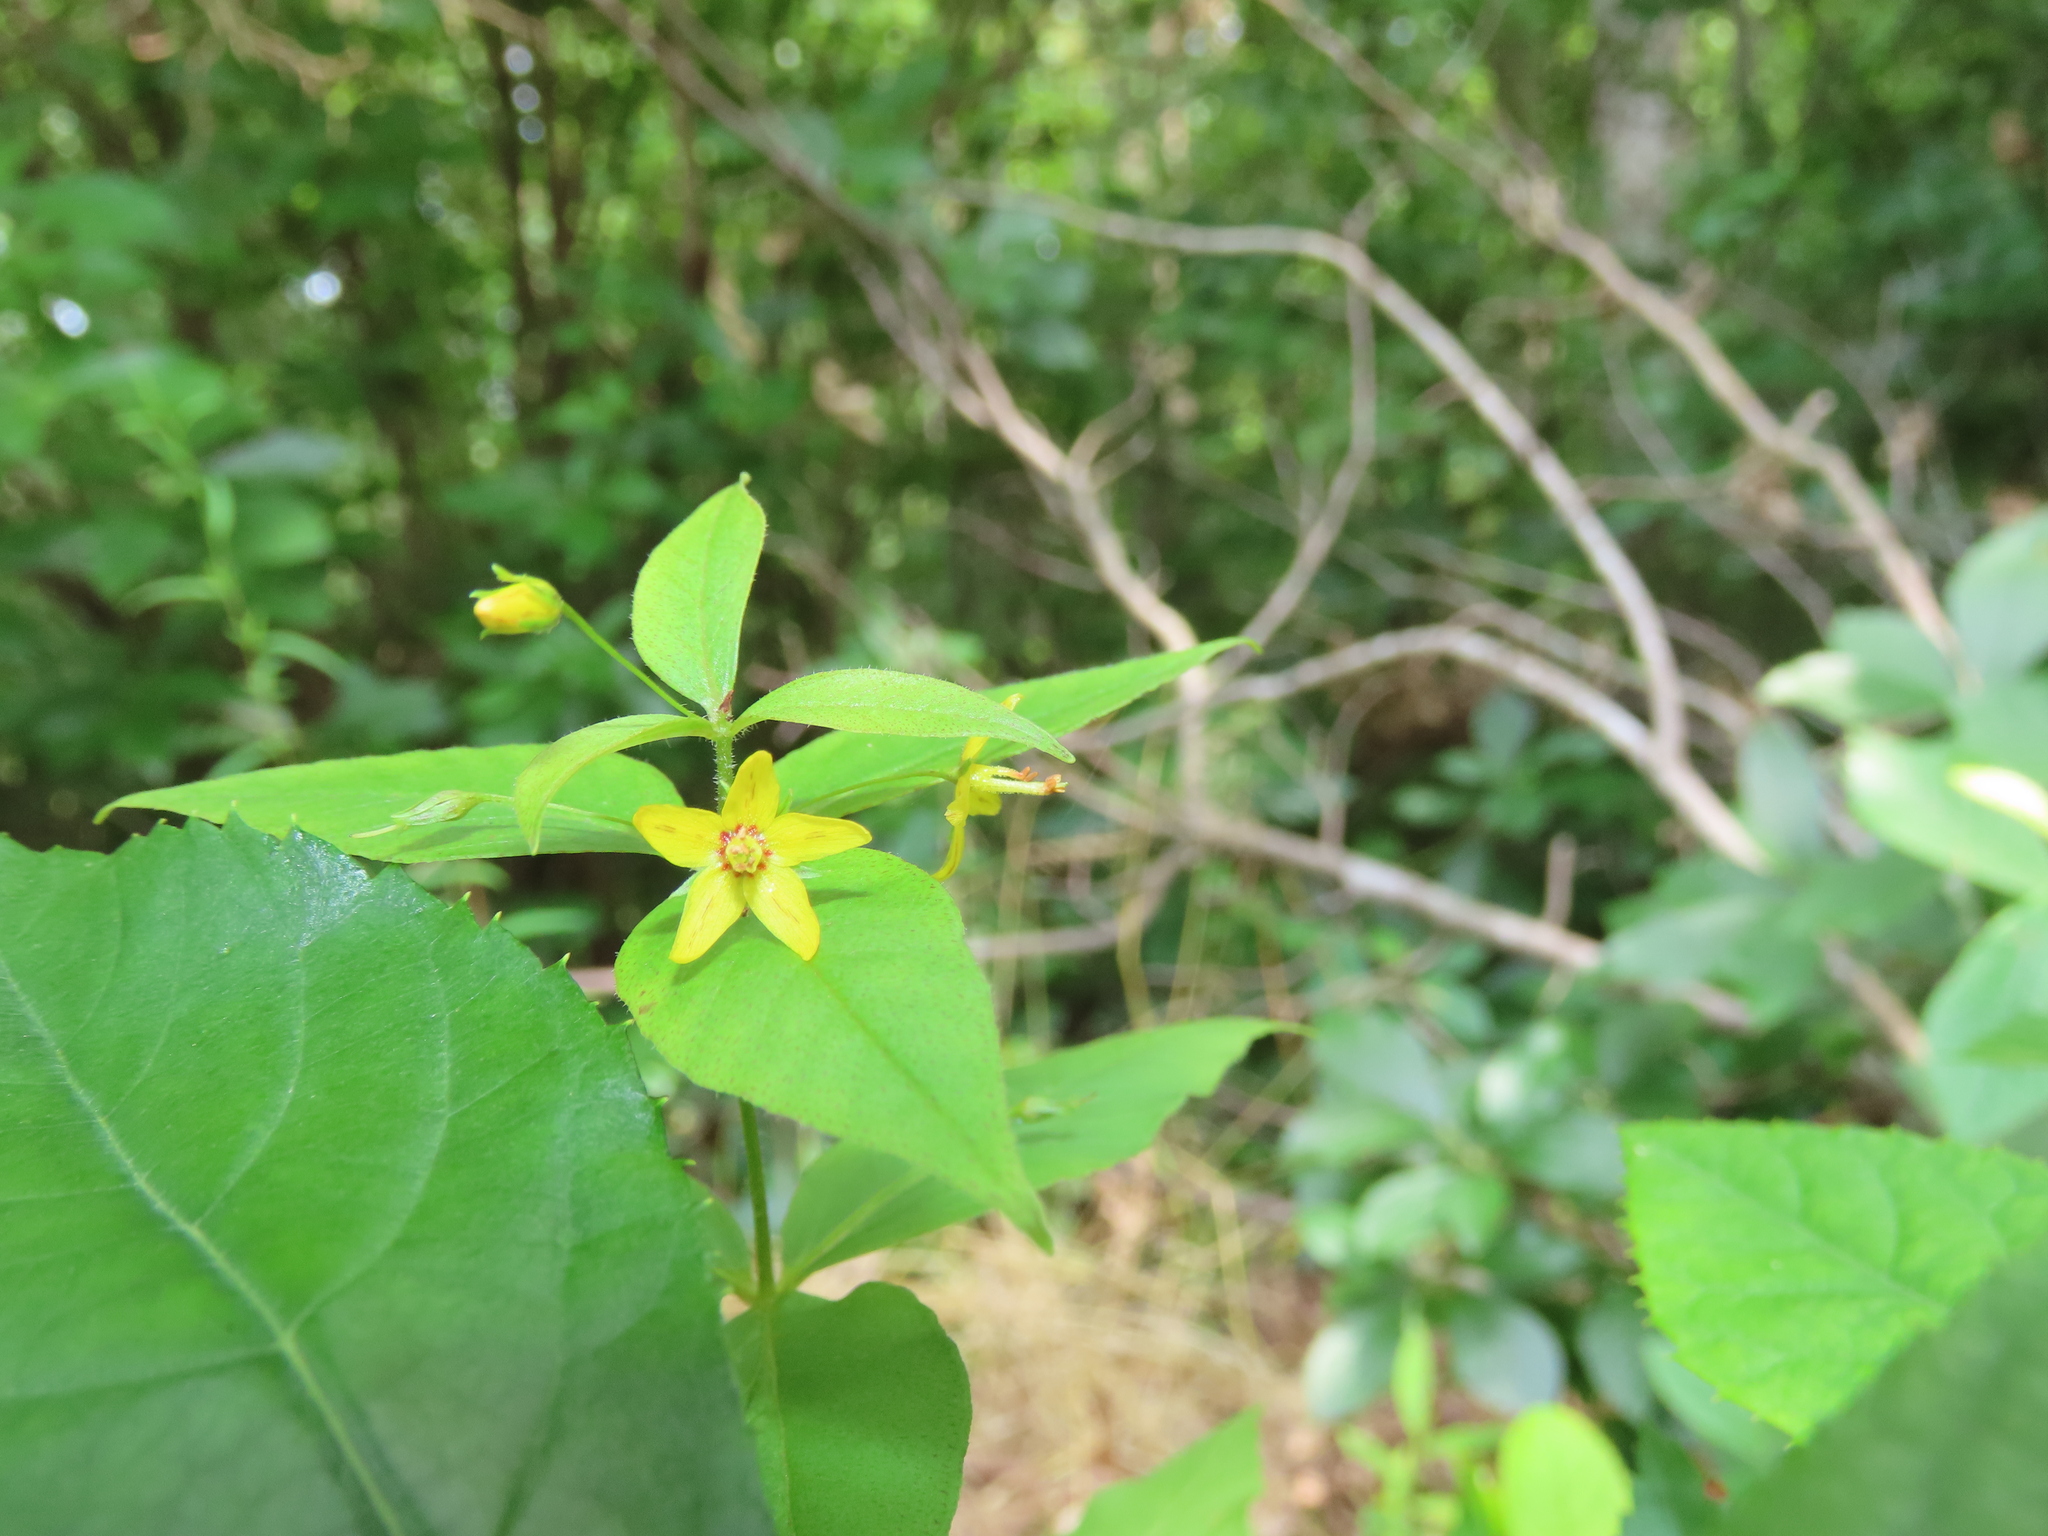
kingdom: Plantae
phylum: Tracheophyta
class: Magnoliopsida
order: Ericales
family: Primulaceae
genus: Lysimachia
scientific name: Lysimachia quadrifolia
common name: Whorled loosestrife
